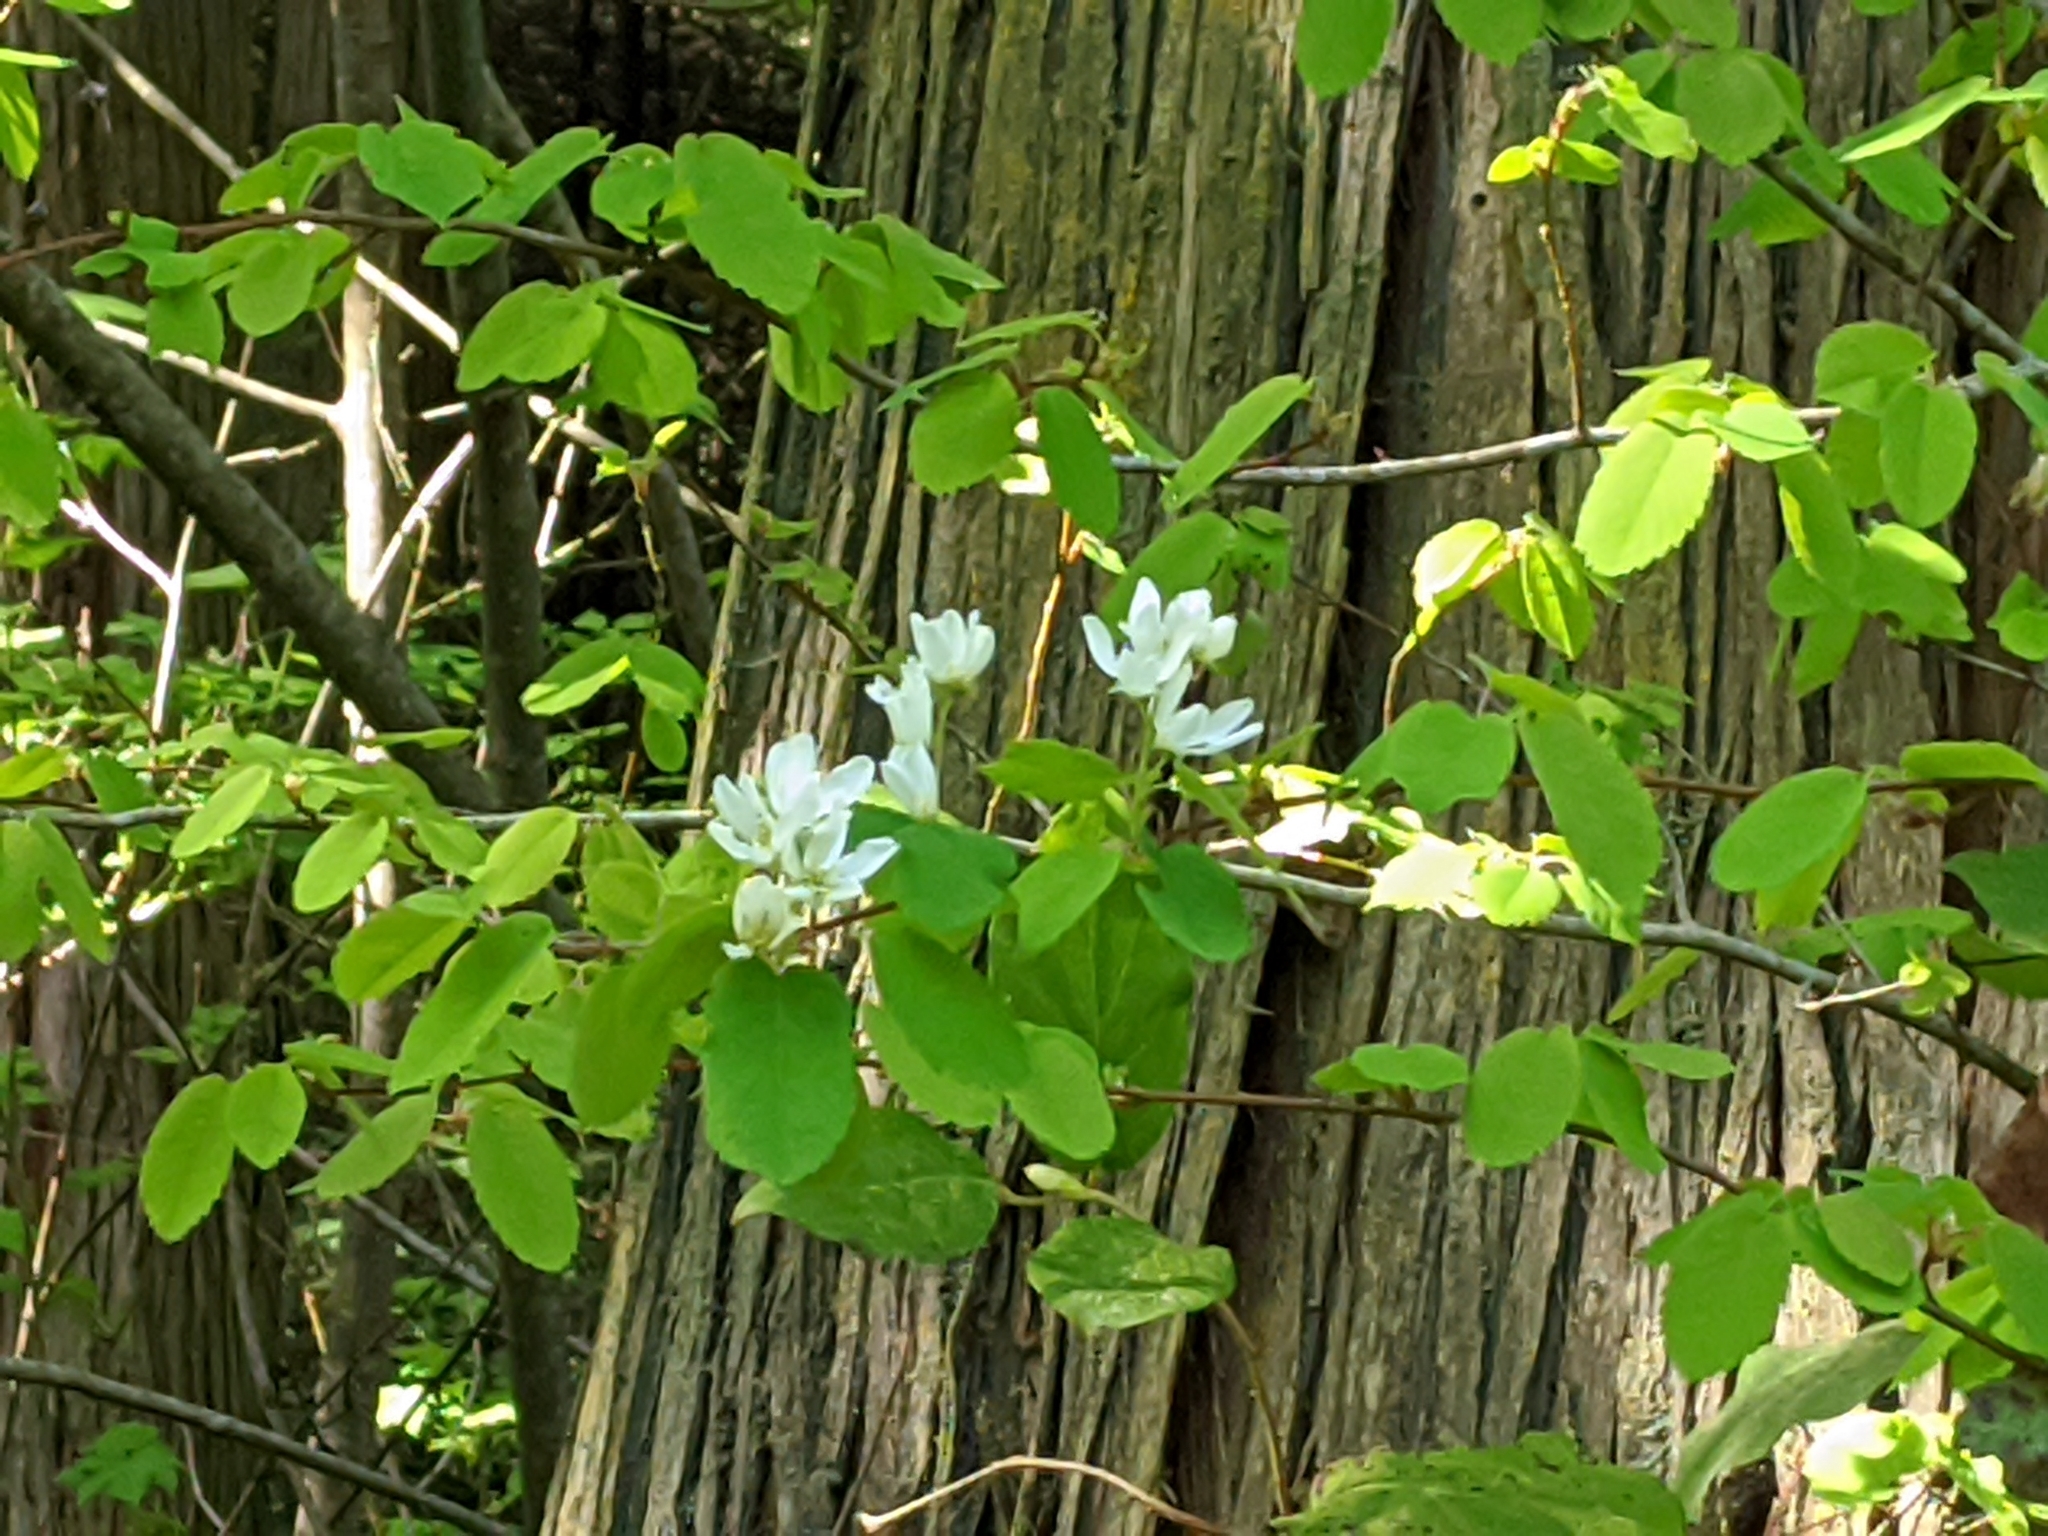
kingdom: Plantae
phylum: Tracheophyta
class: Magnoliopsida
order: Rosales
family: Rosaceae
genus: Amelanchier
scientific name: Amelanchier alnifolia
